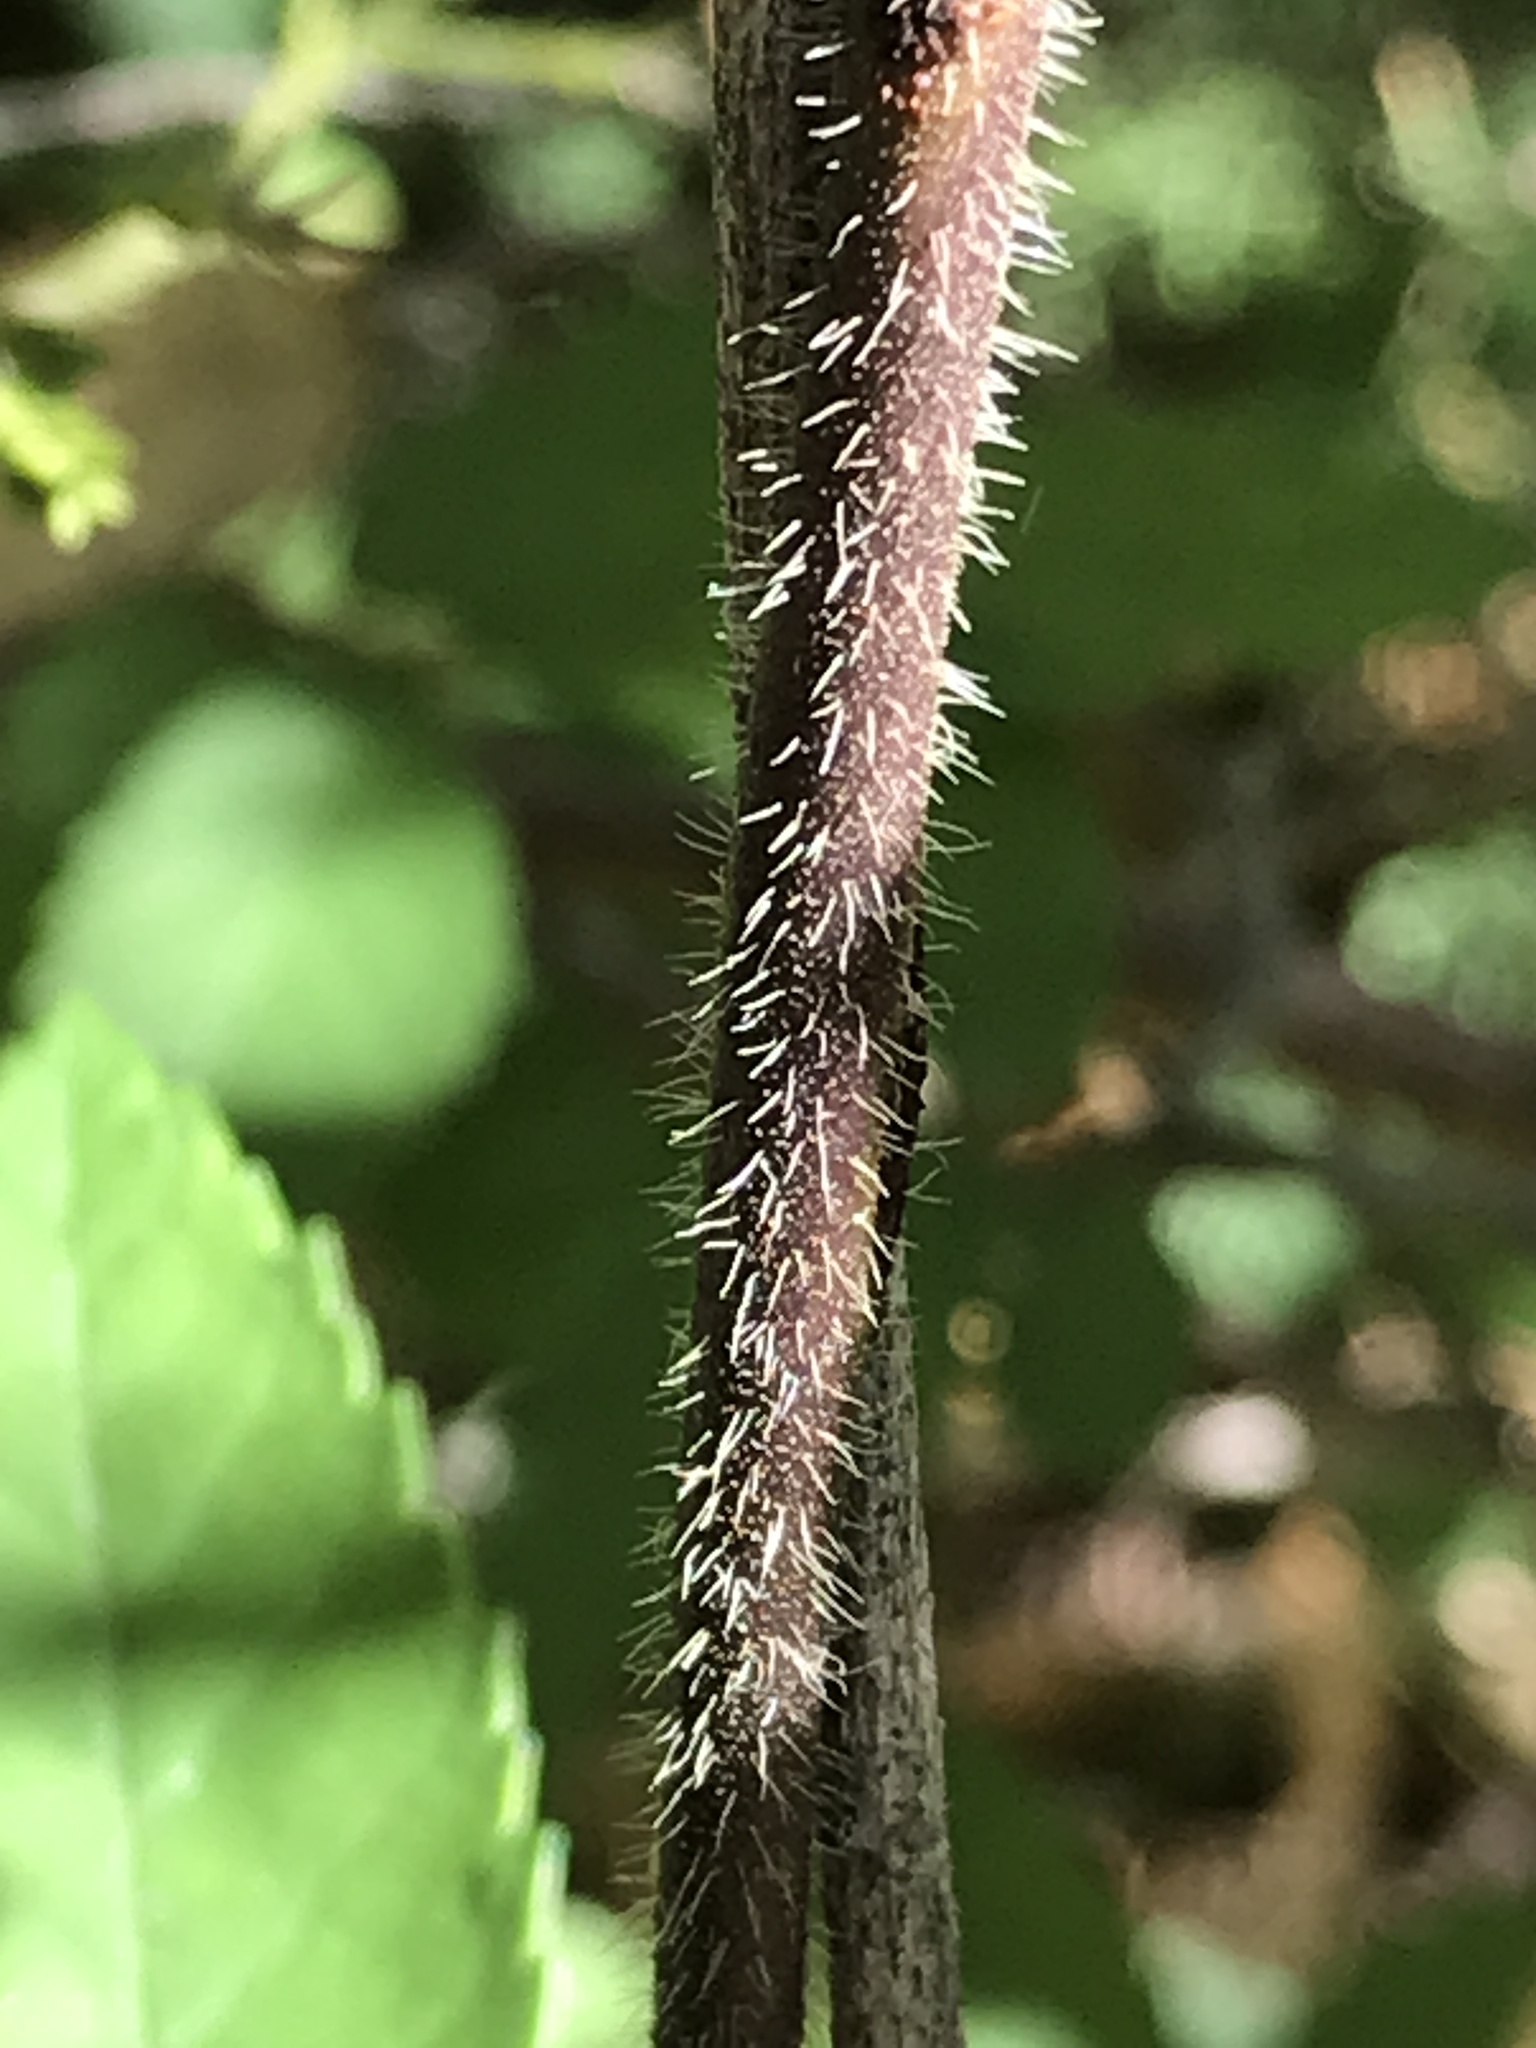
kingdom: Plantae
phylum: Tracheophyta
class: Magnoliopsida
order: Gentianales
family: Apocynaceae
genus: Gonolobus
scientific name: Gonolobus suberosus
